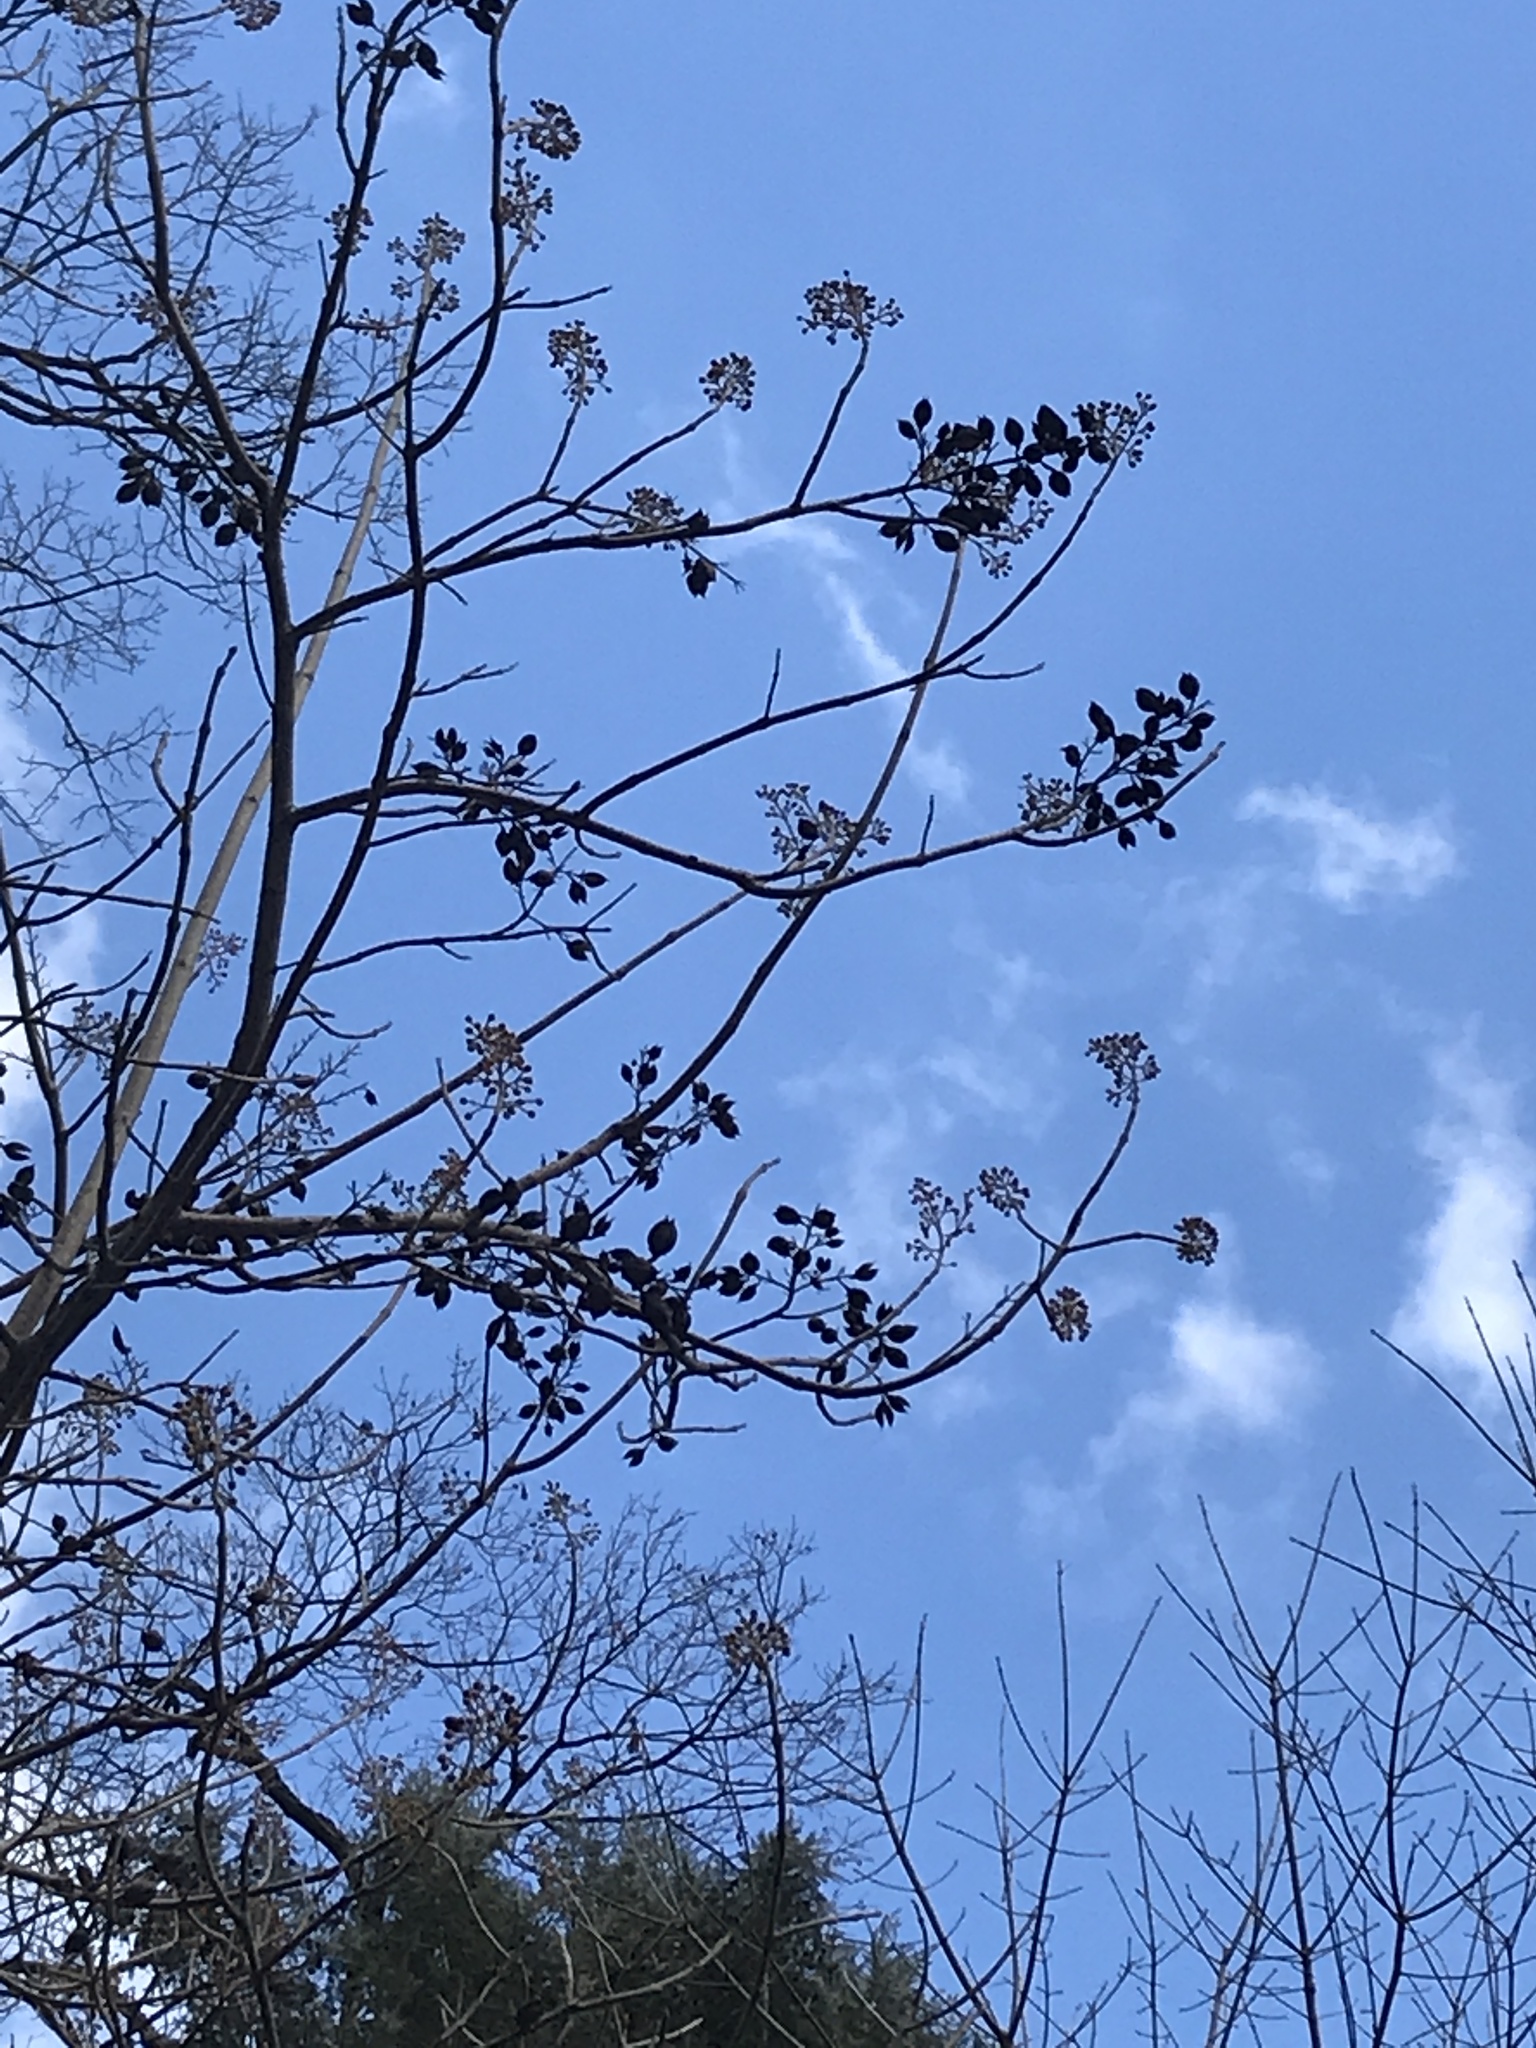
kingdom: Plantae
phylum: Tracheophyta
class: Magnoliopsida
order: Lamiales
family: Paulowniaceae
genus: Paulownia
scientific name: Paulownia tomentosa
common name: Foxglove-tree
